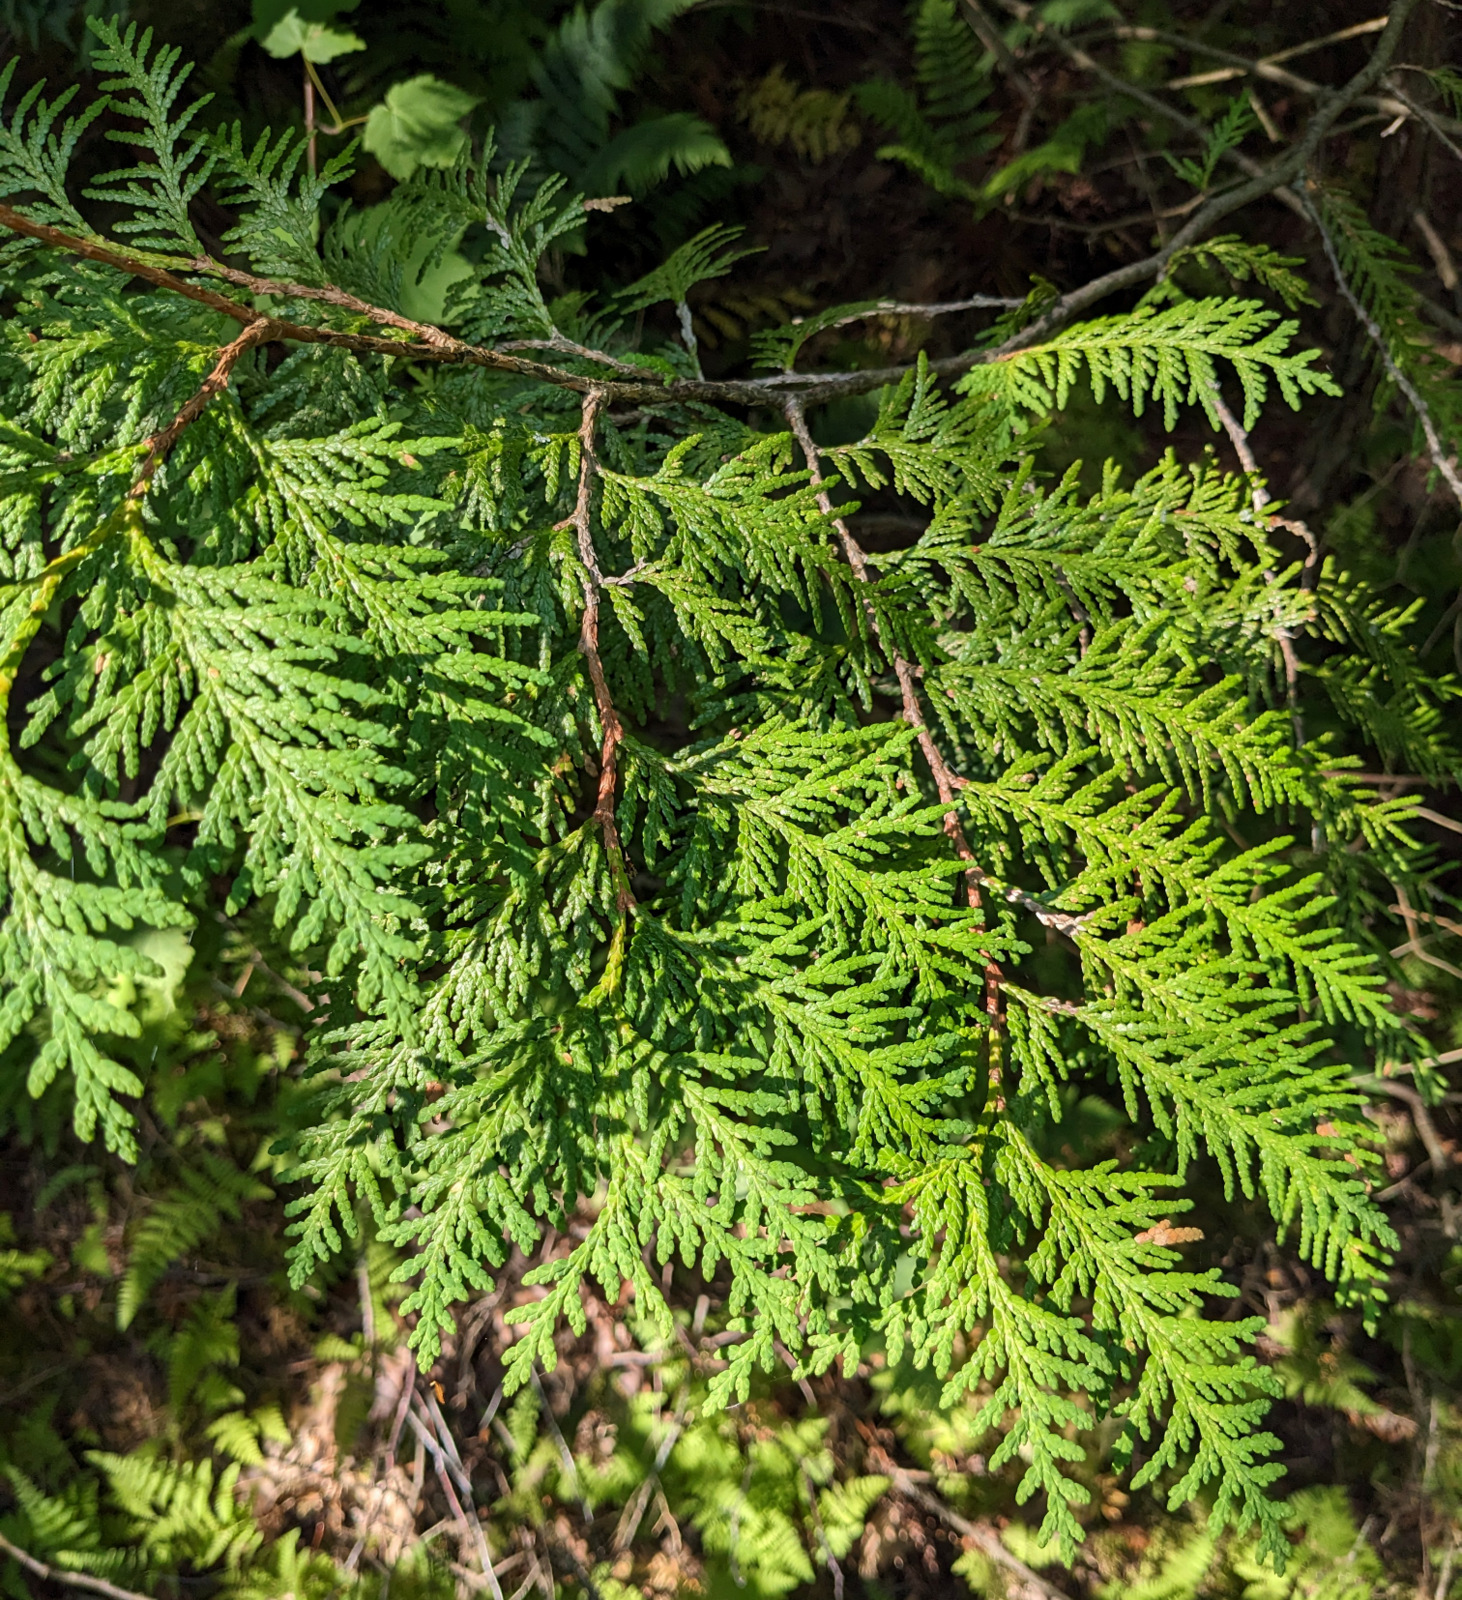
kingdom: Plantae
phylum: Tracheophyta
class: Pinopsida
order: Pinales
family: Cupressaceae
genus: Thuja
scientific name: Thuja occidentalis
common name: Northern white-cedar
